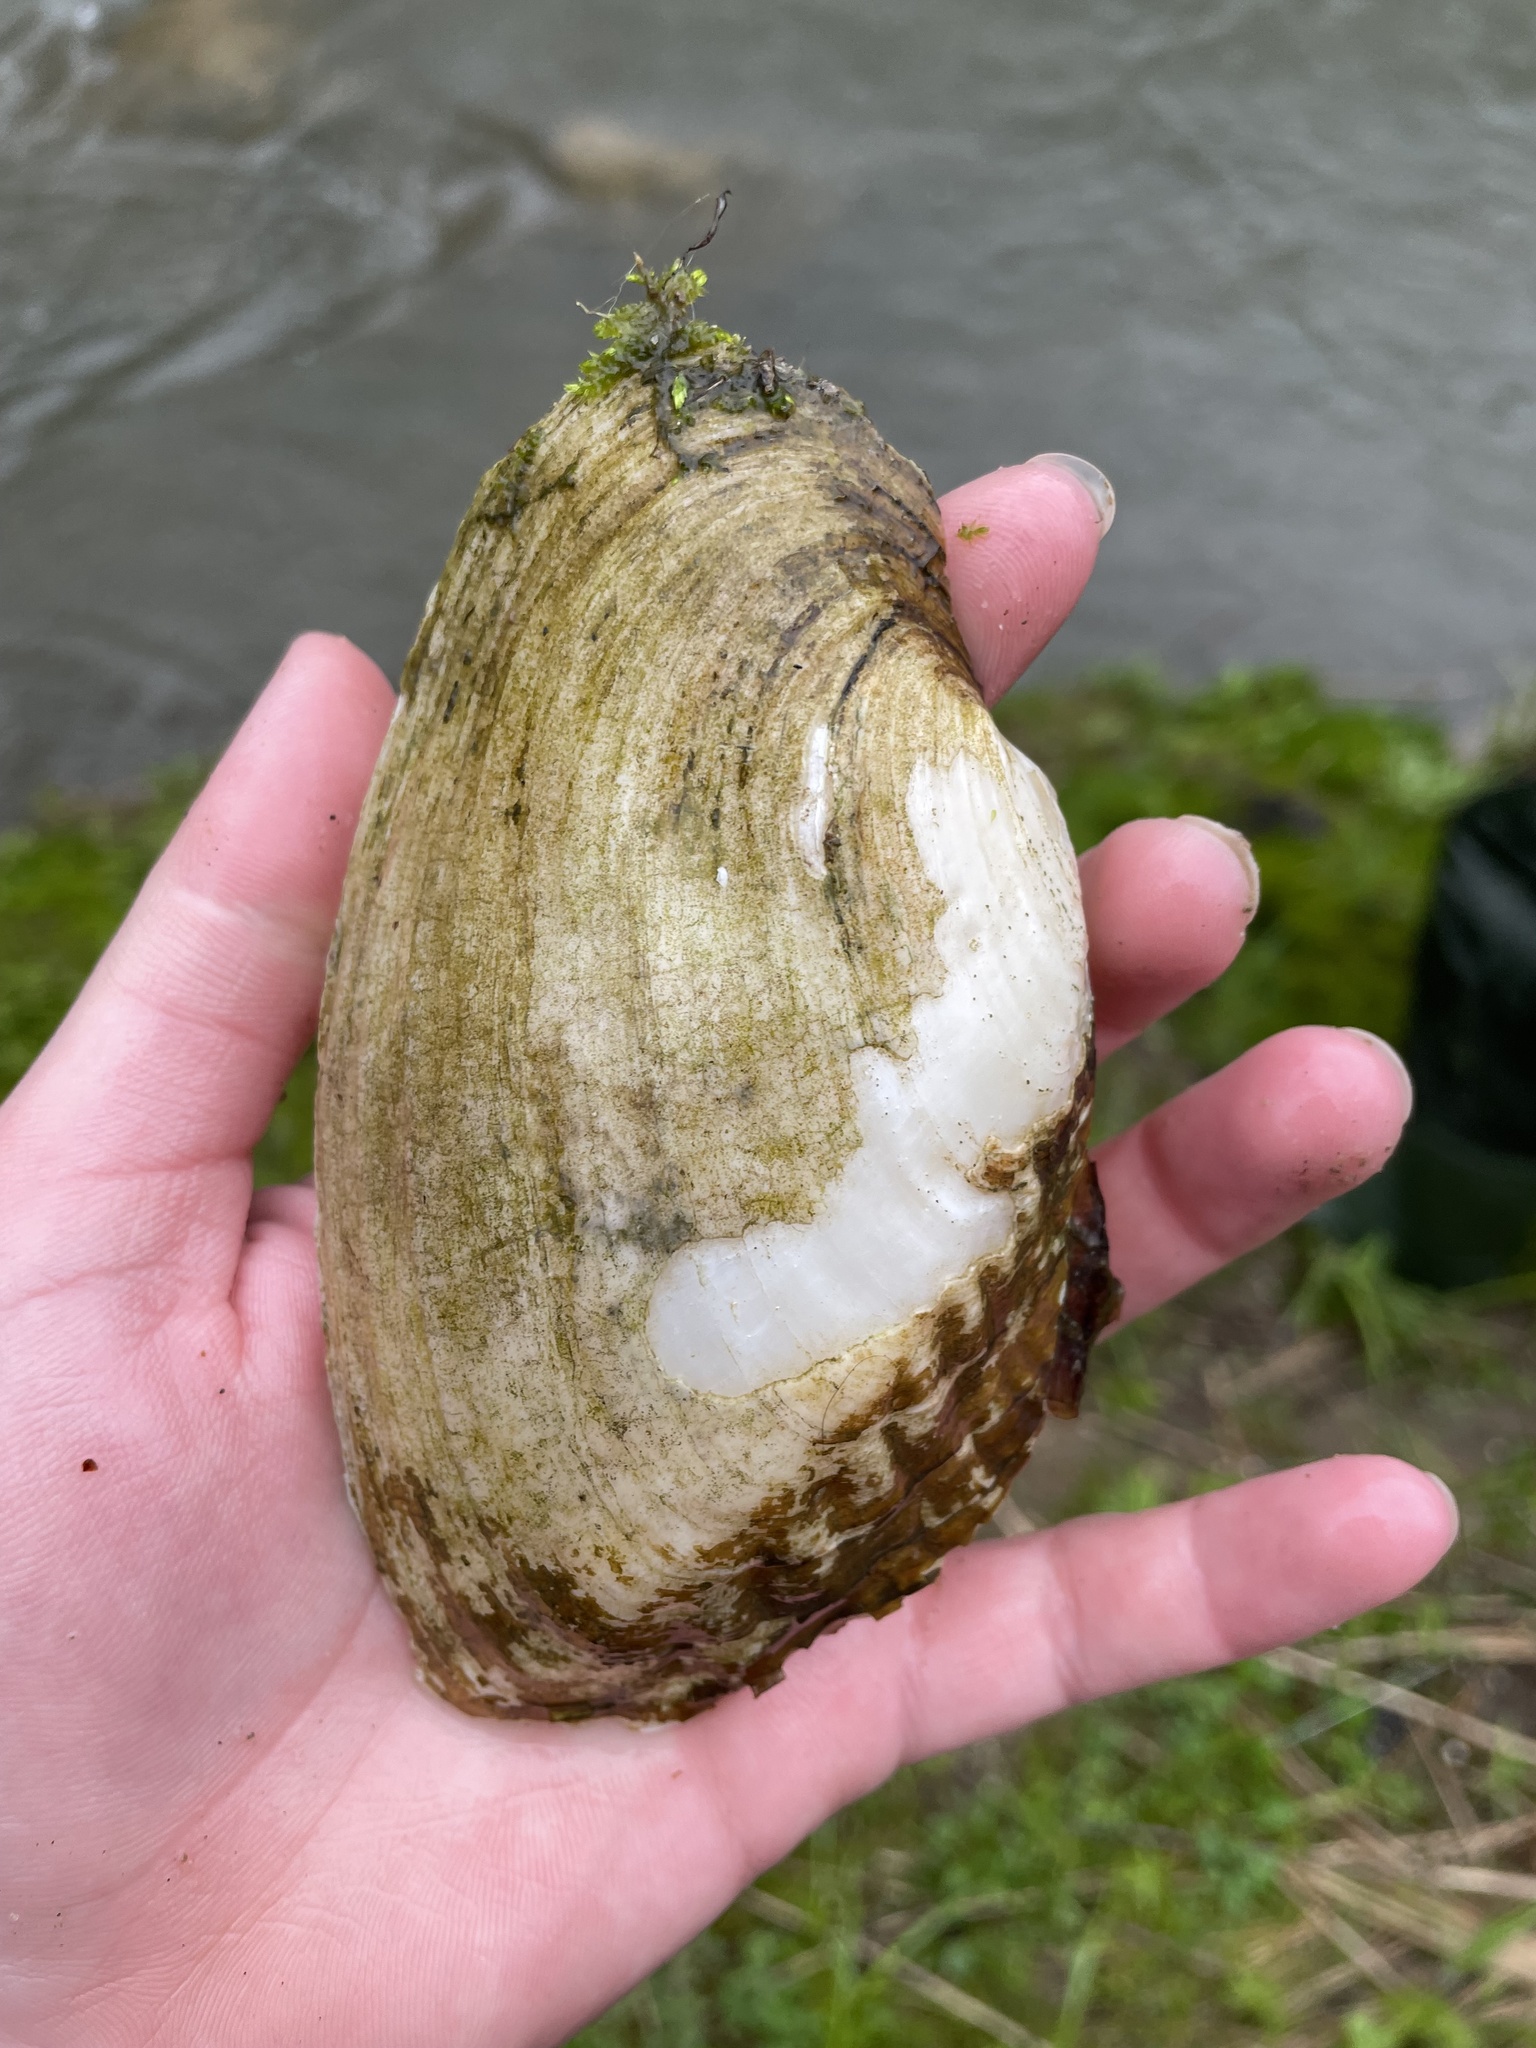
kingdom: Animalia
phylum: Mollusca
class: Bivalvia
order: Unionida
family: Unionidae
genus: Lasmigona
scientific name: Lasmigona costata
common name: Flutedshell
